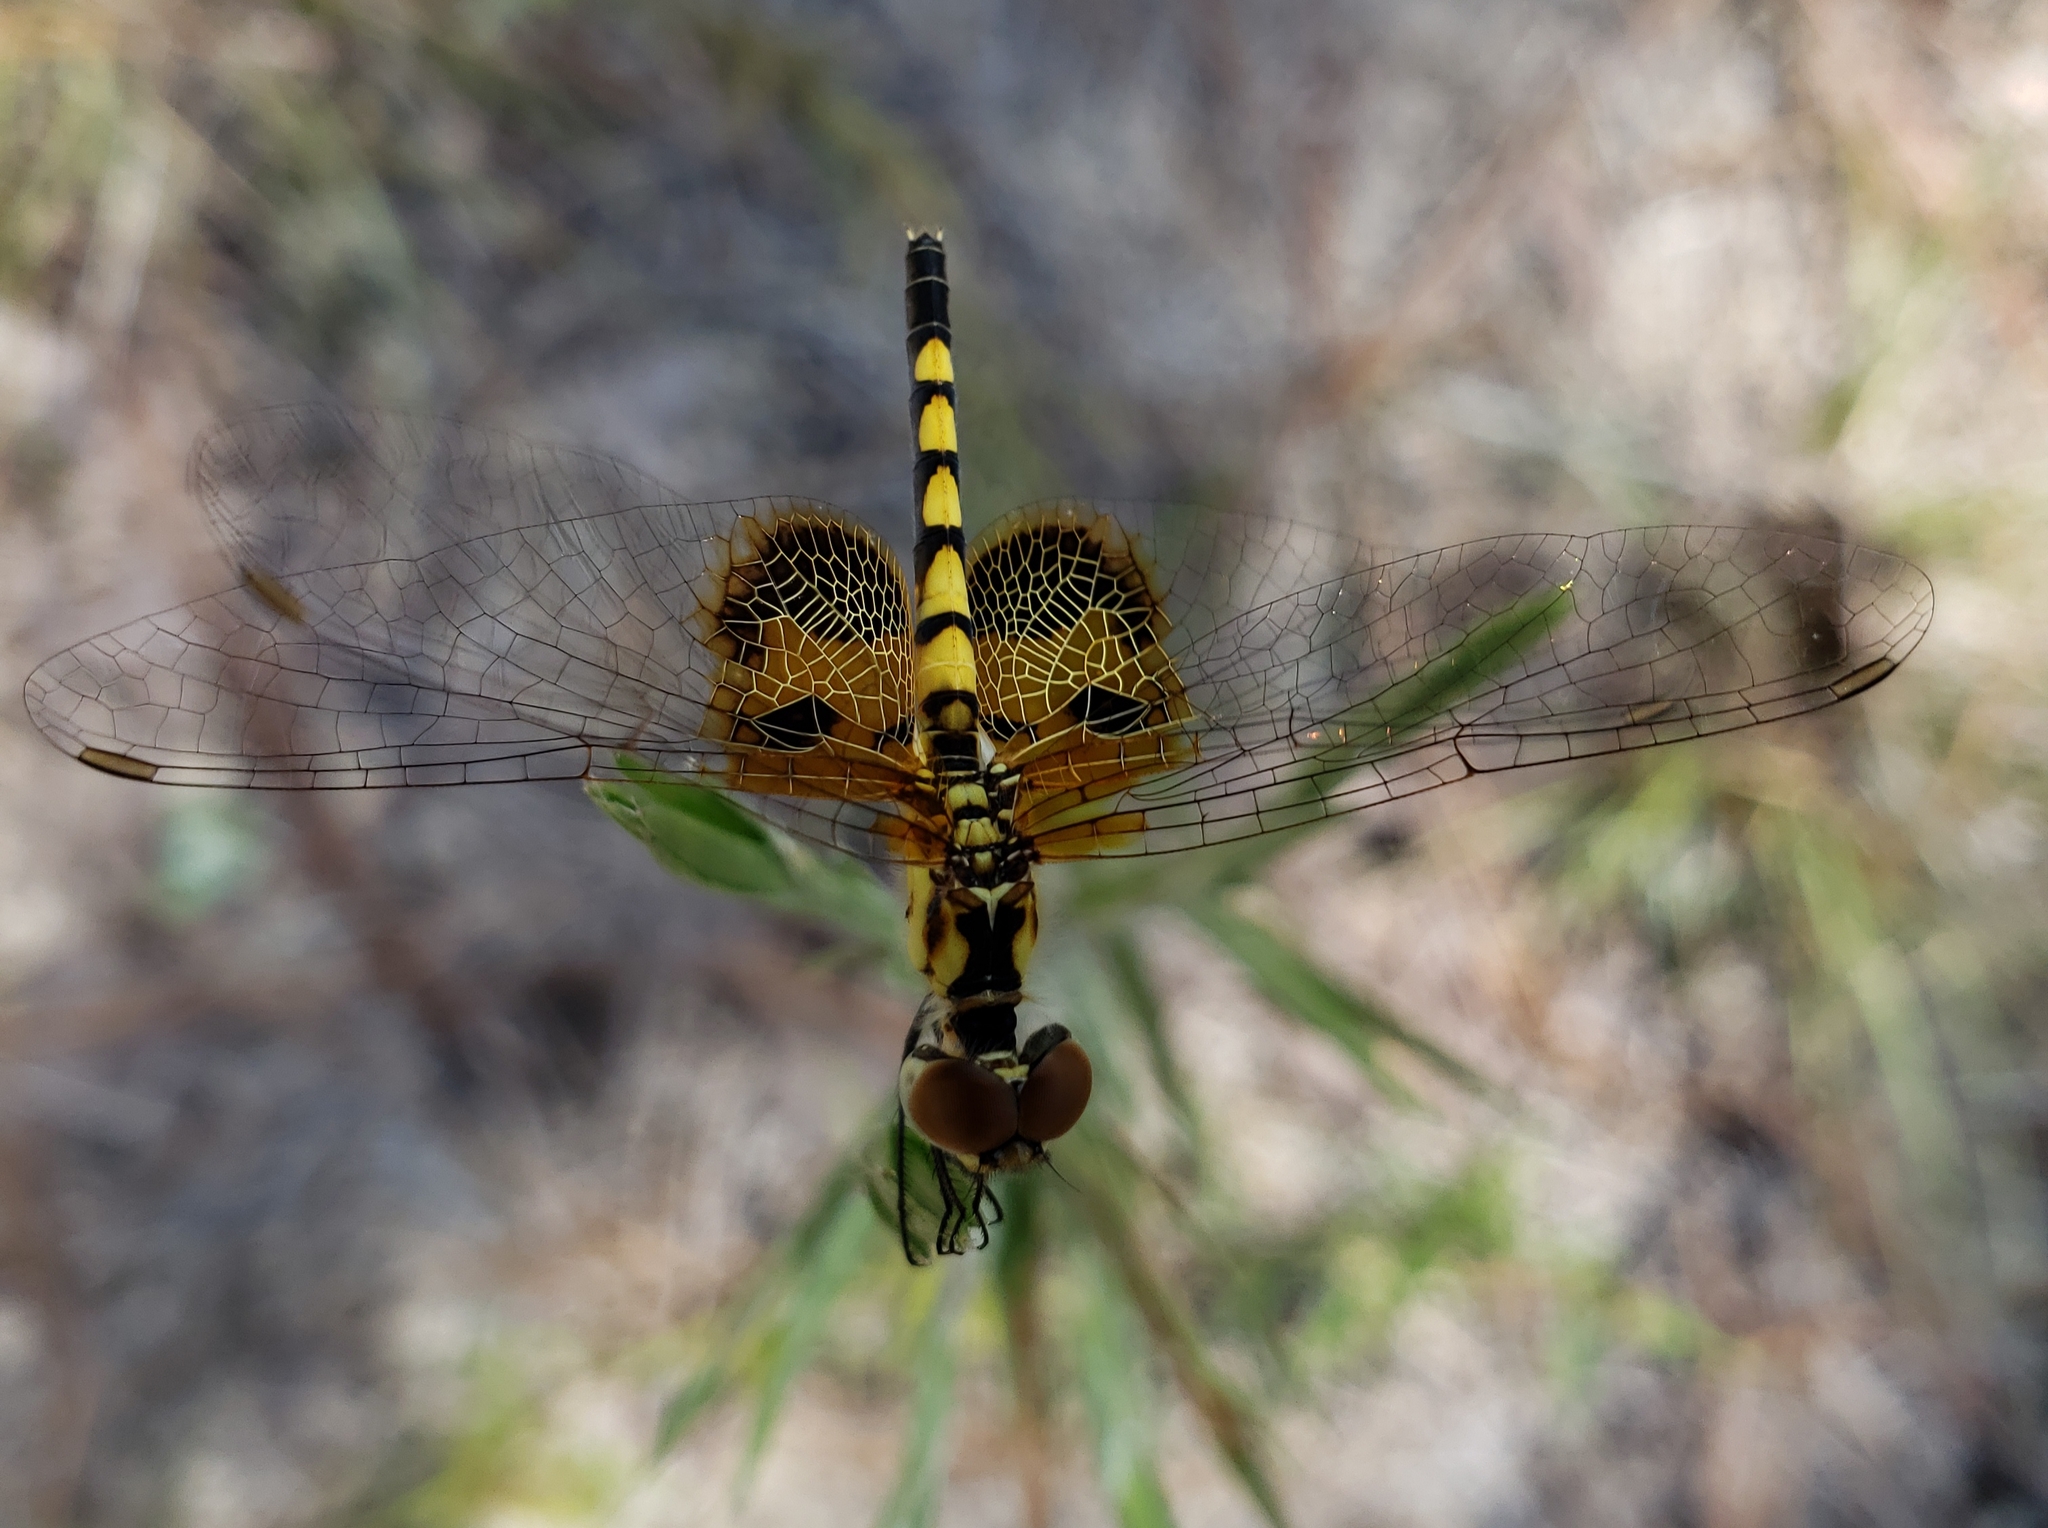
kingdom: Animalia
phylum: Arthropoda
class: Insecta
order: Odonata
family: Libellulidae
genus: Celithemis
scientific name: Celithemis amanda
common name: Amanda's pennant
